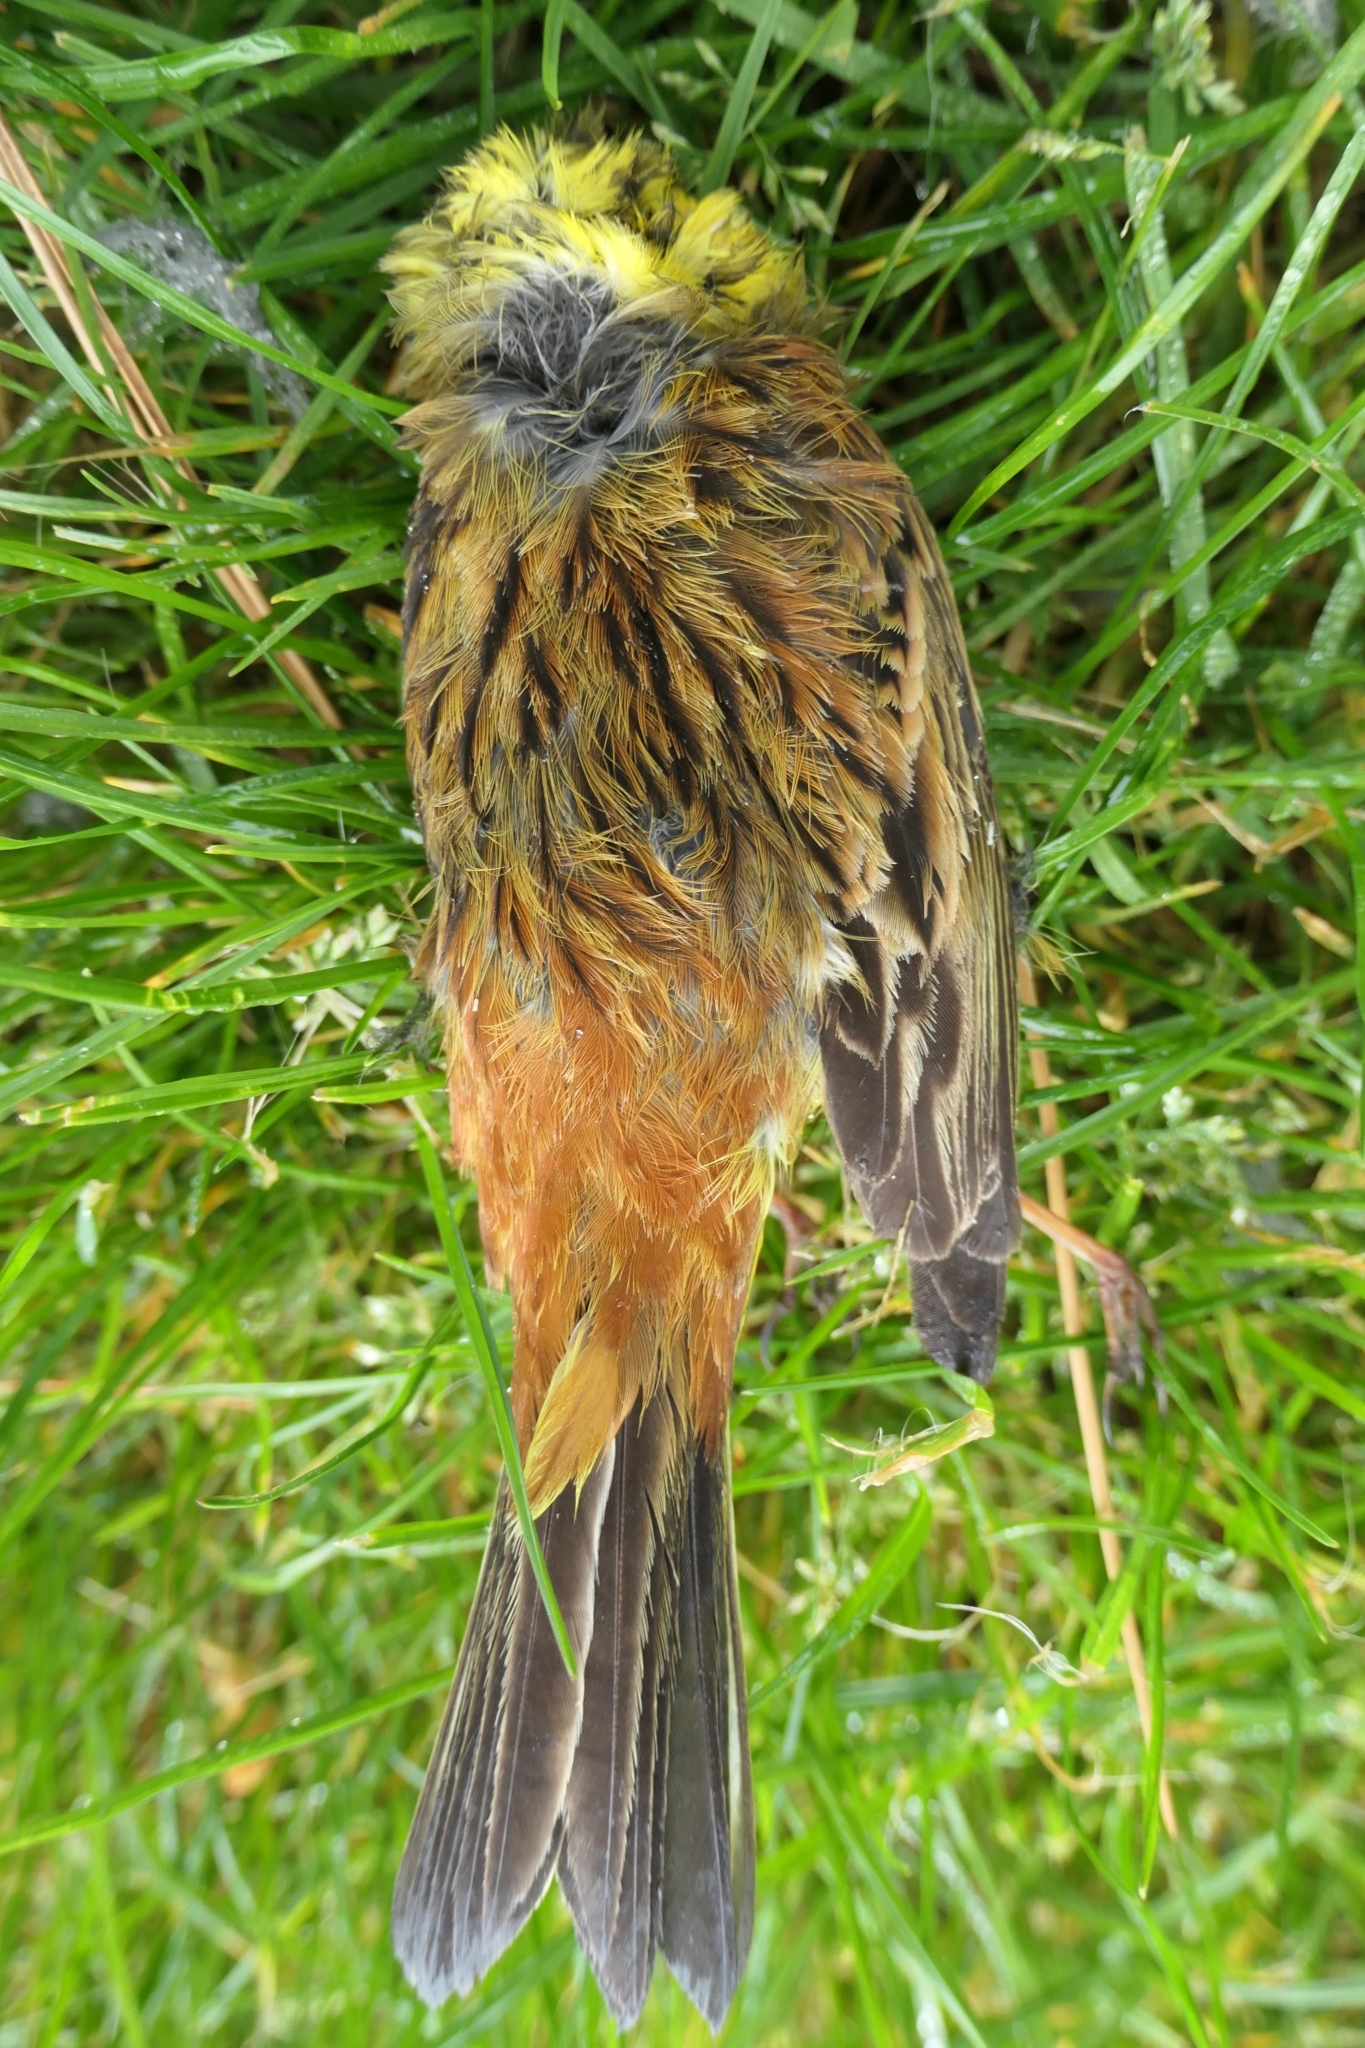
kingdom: Animalia
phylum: Chordata
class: Aves
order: Passeriformes
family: Emberizidae
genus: Emberiza
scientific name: Emberiza citrinella
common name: Yellowhammer
